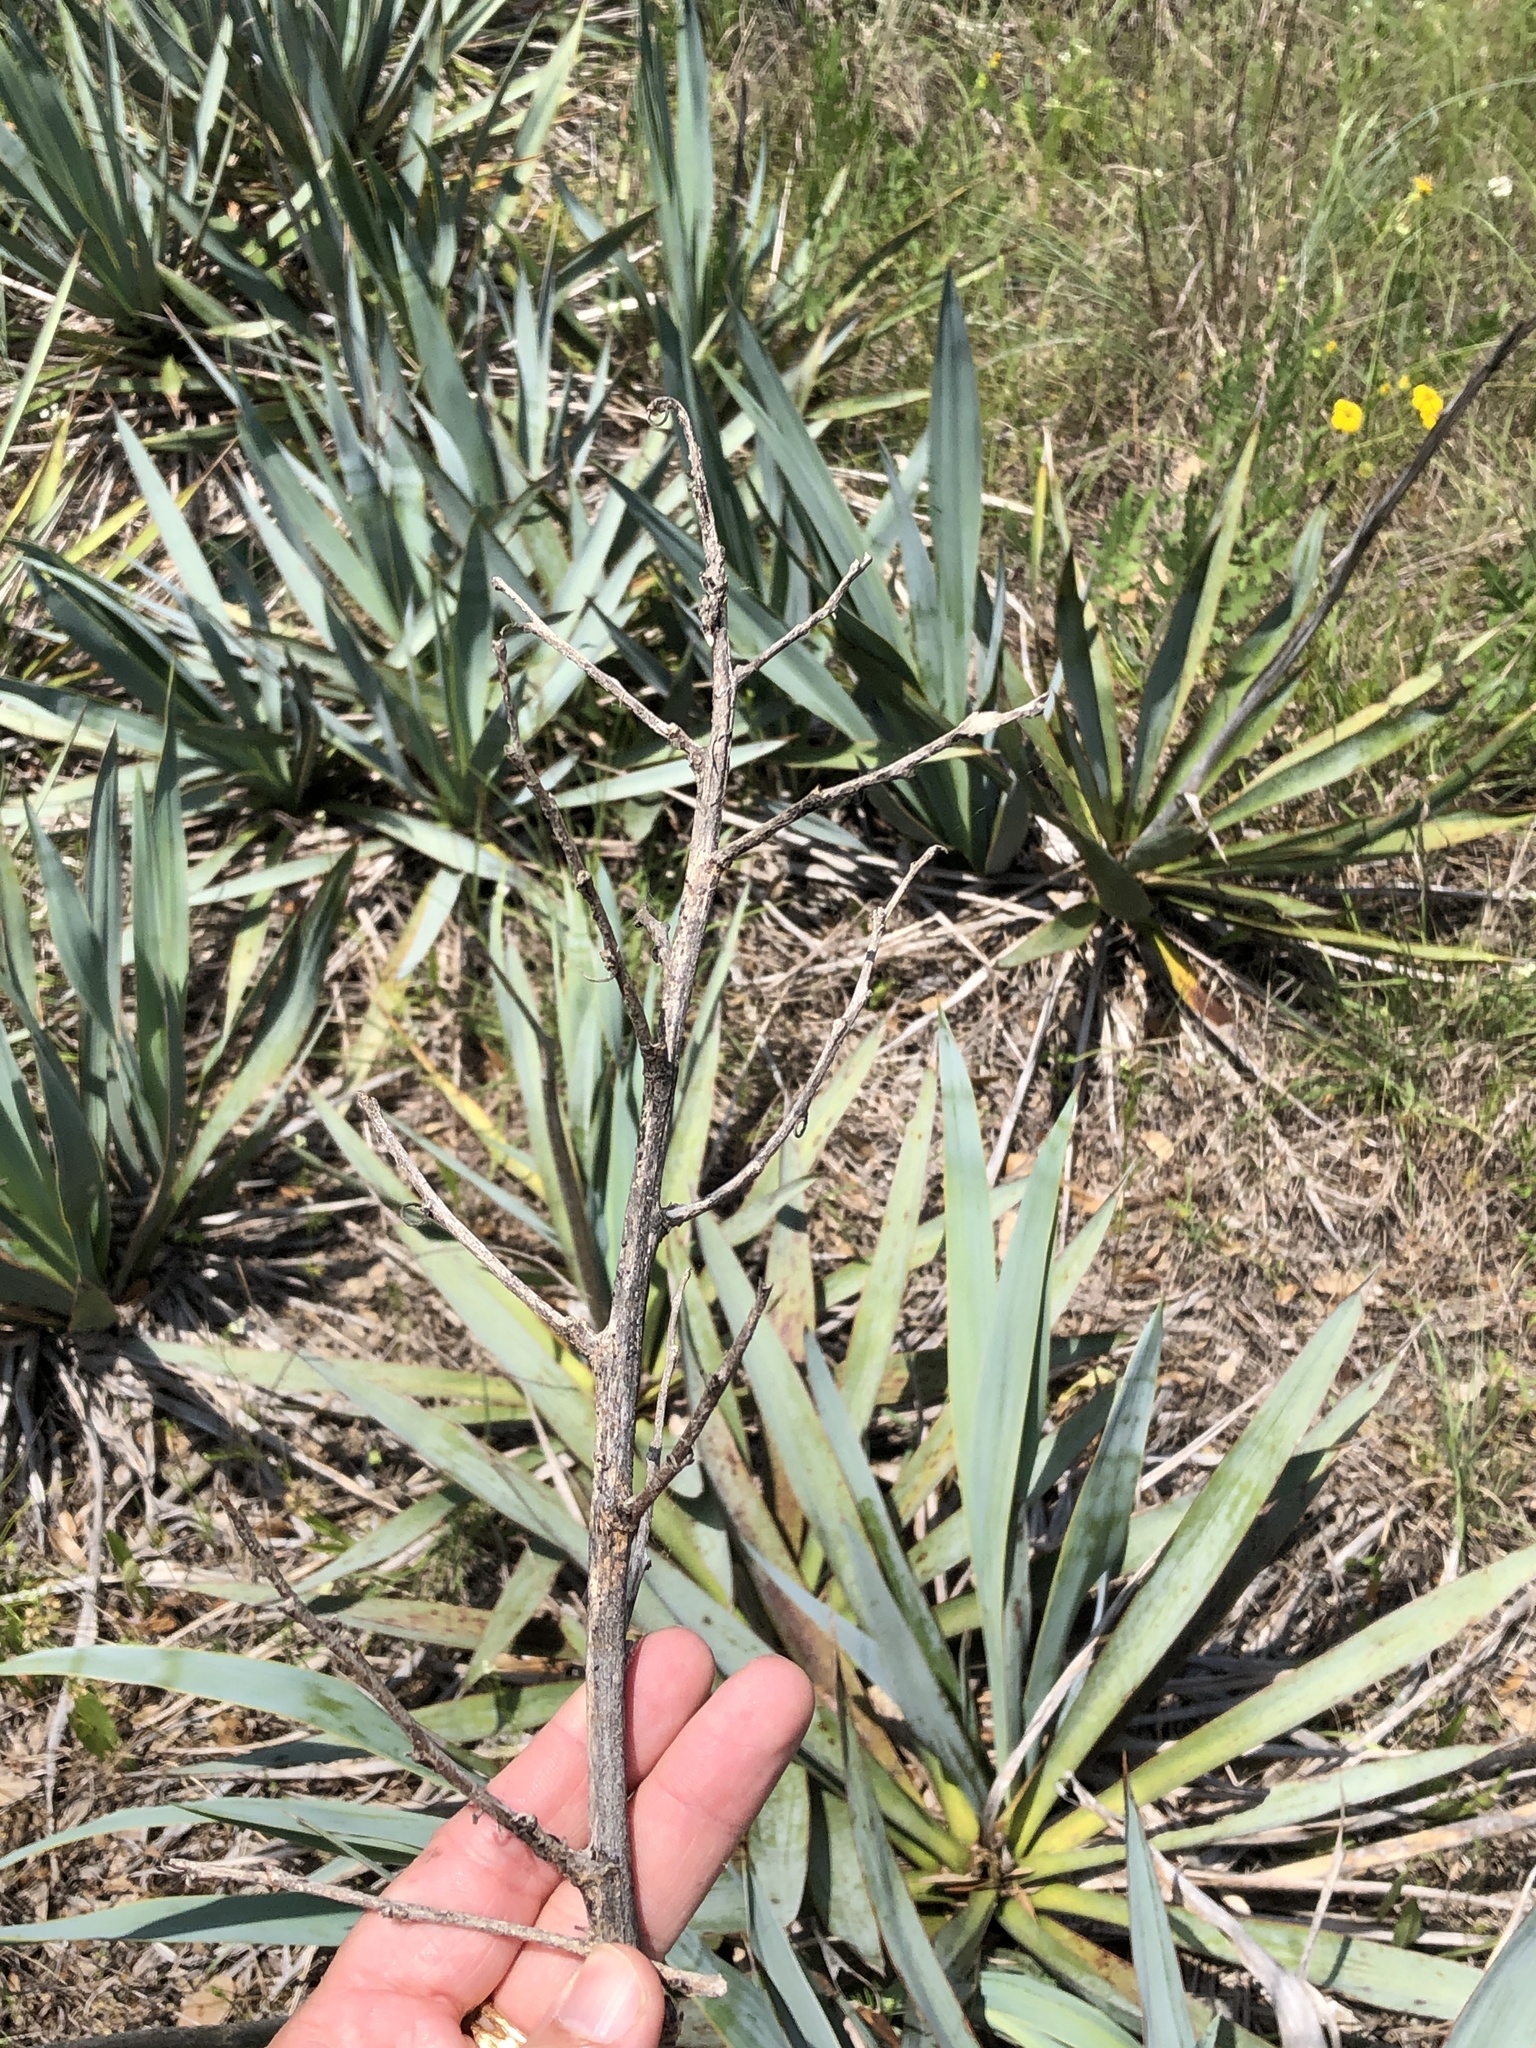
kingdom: Plantae
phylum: Tracheophyta
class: Liliopsida
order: Asparagales
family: Asparagaceae
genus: Yucca
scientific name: Yucca pallida
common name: Pale leaf yucca
